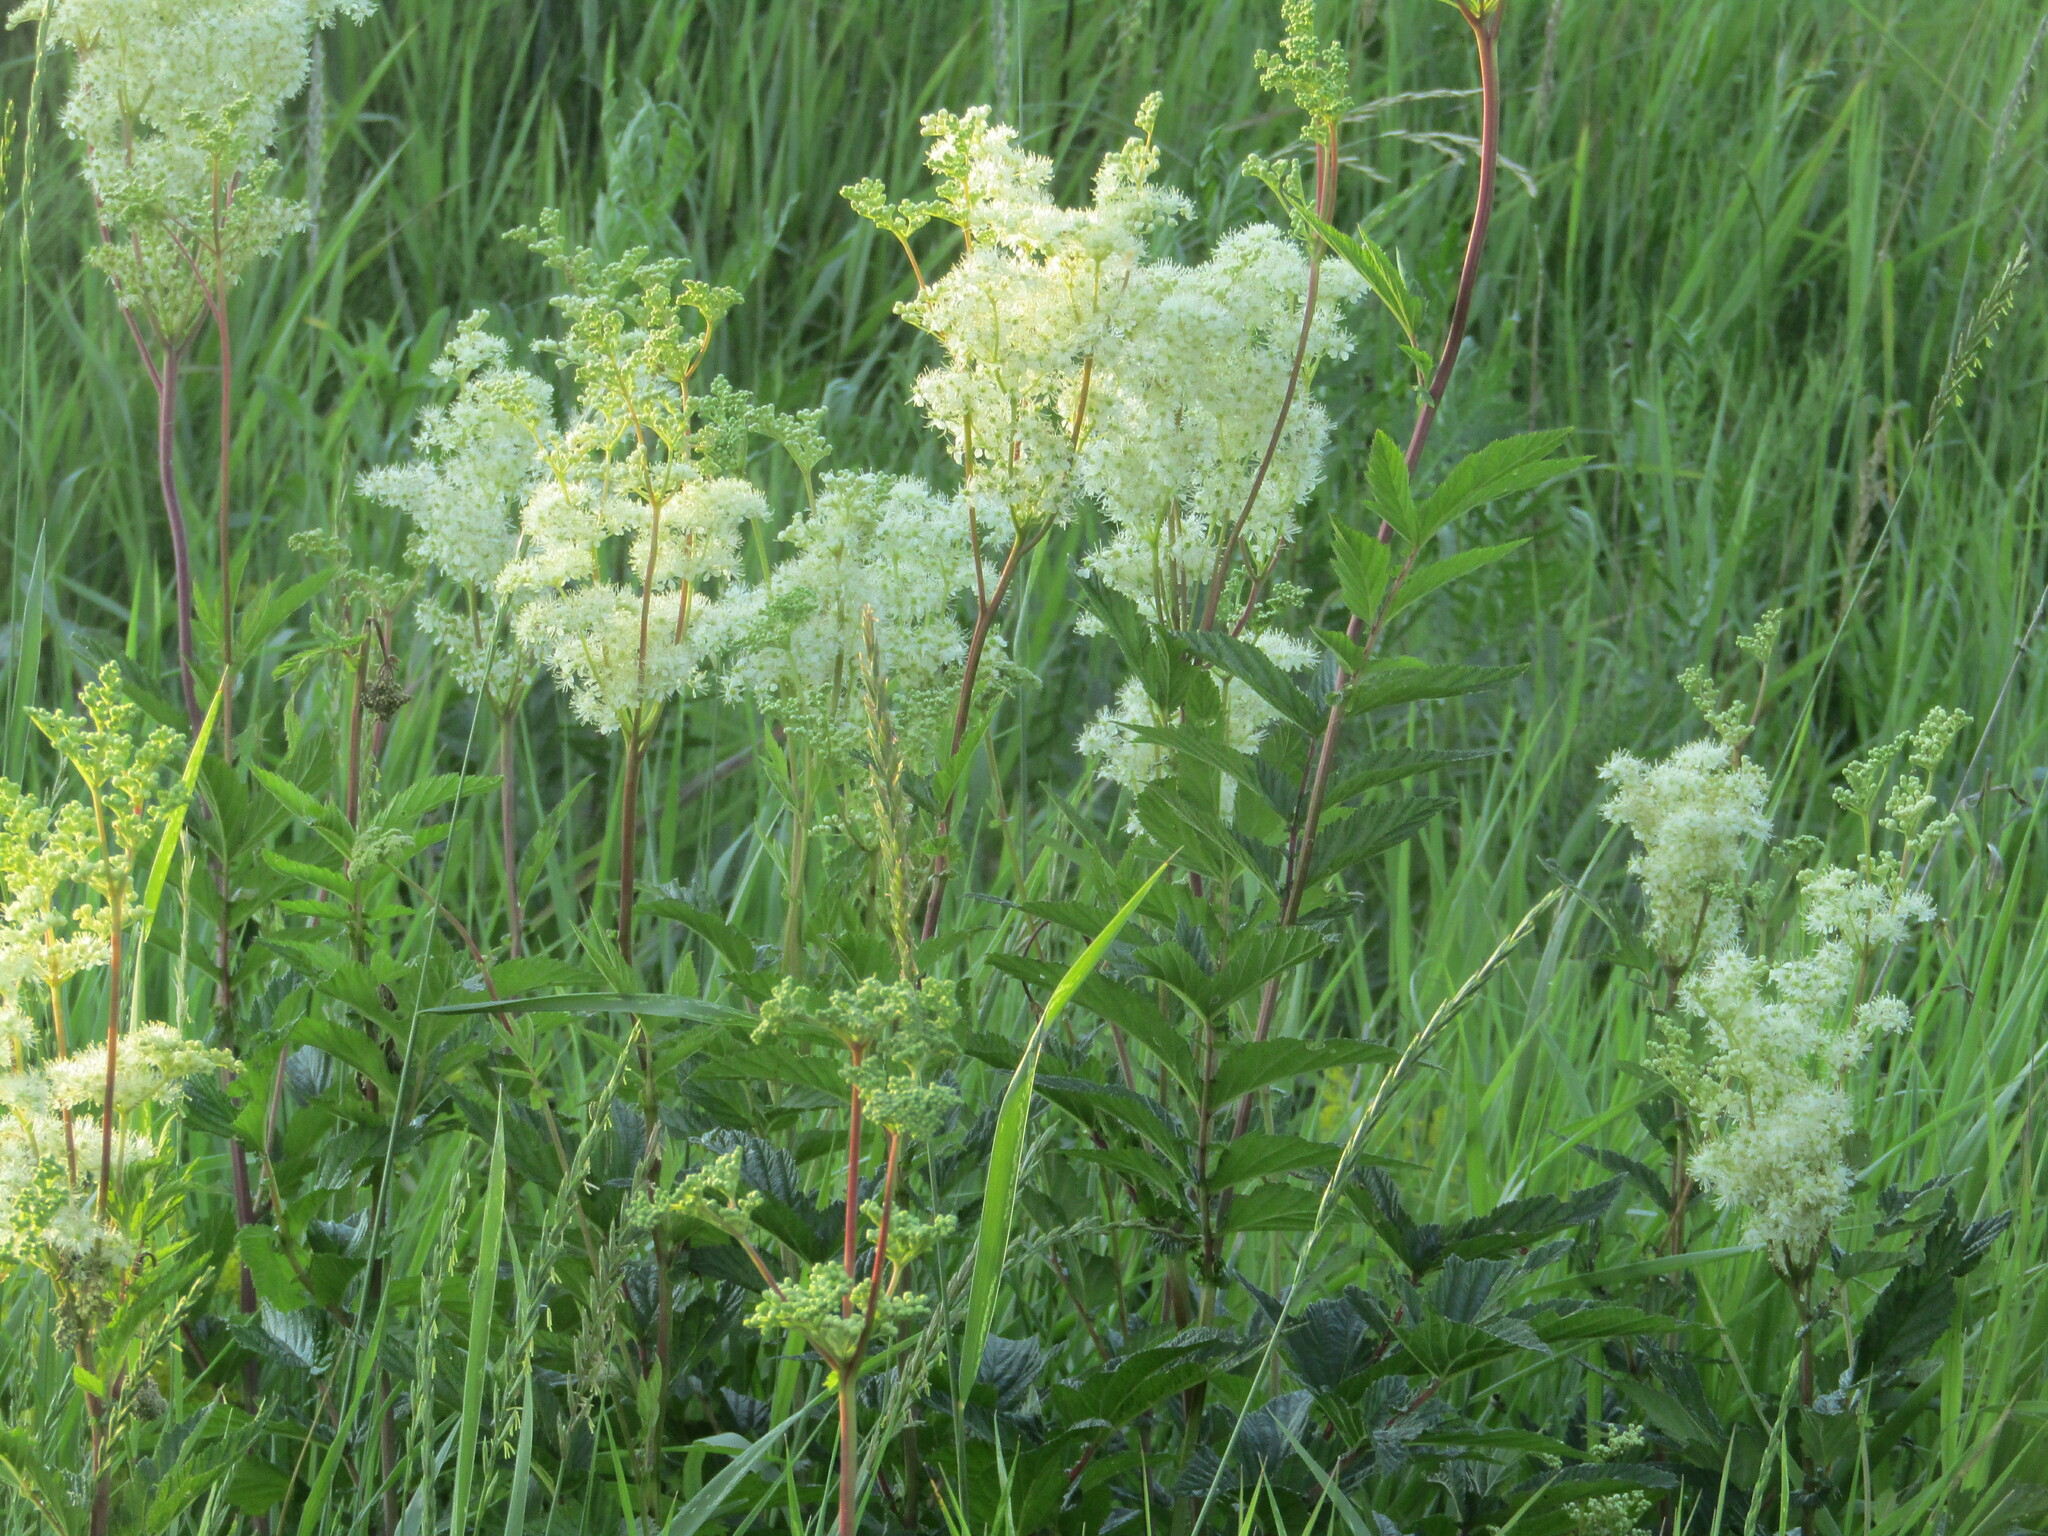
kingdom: Plantae
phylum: Tracheophyta
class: Magnoliopsida
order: Rosales
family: Rosaceae
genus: Filipendula
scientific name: Filipendula ulmaria
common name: Meadowsweet
